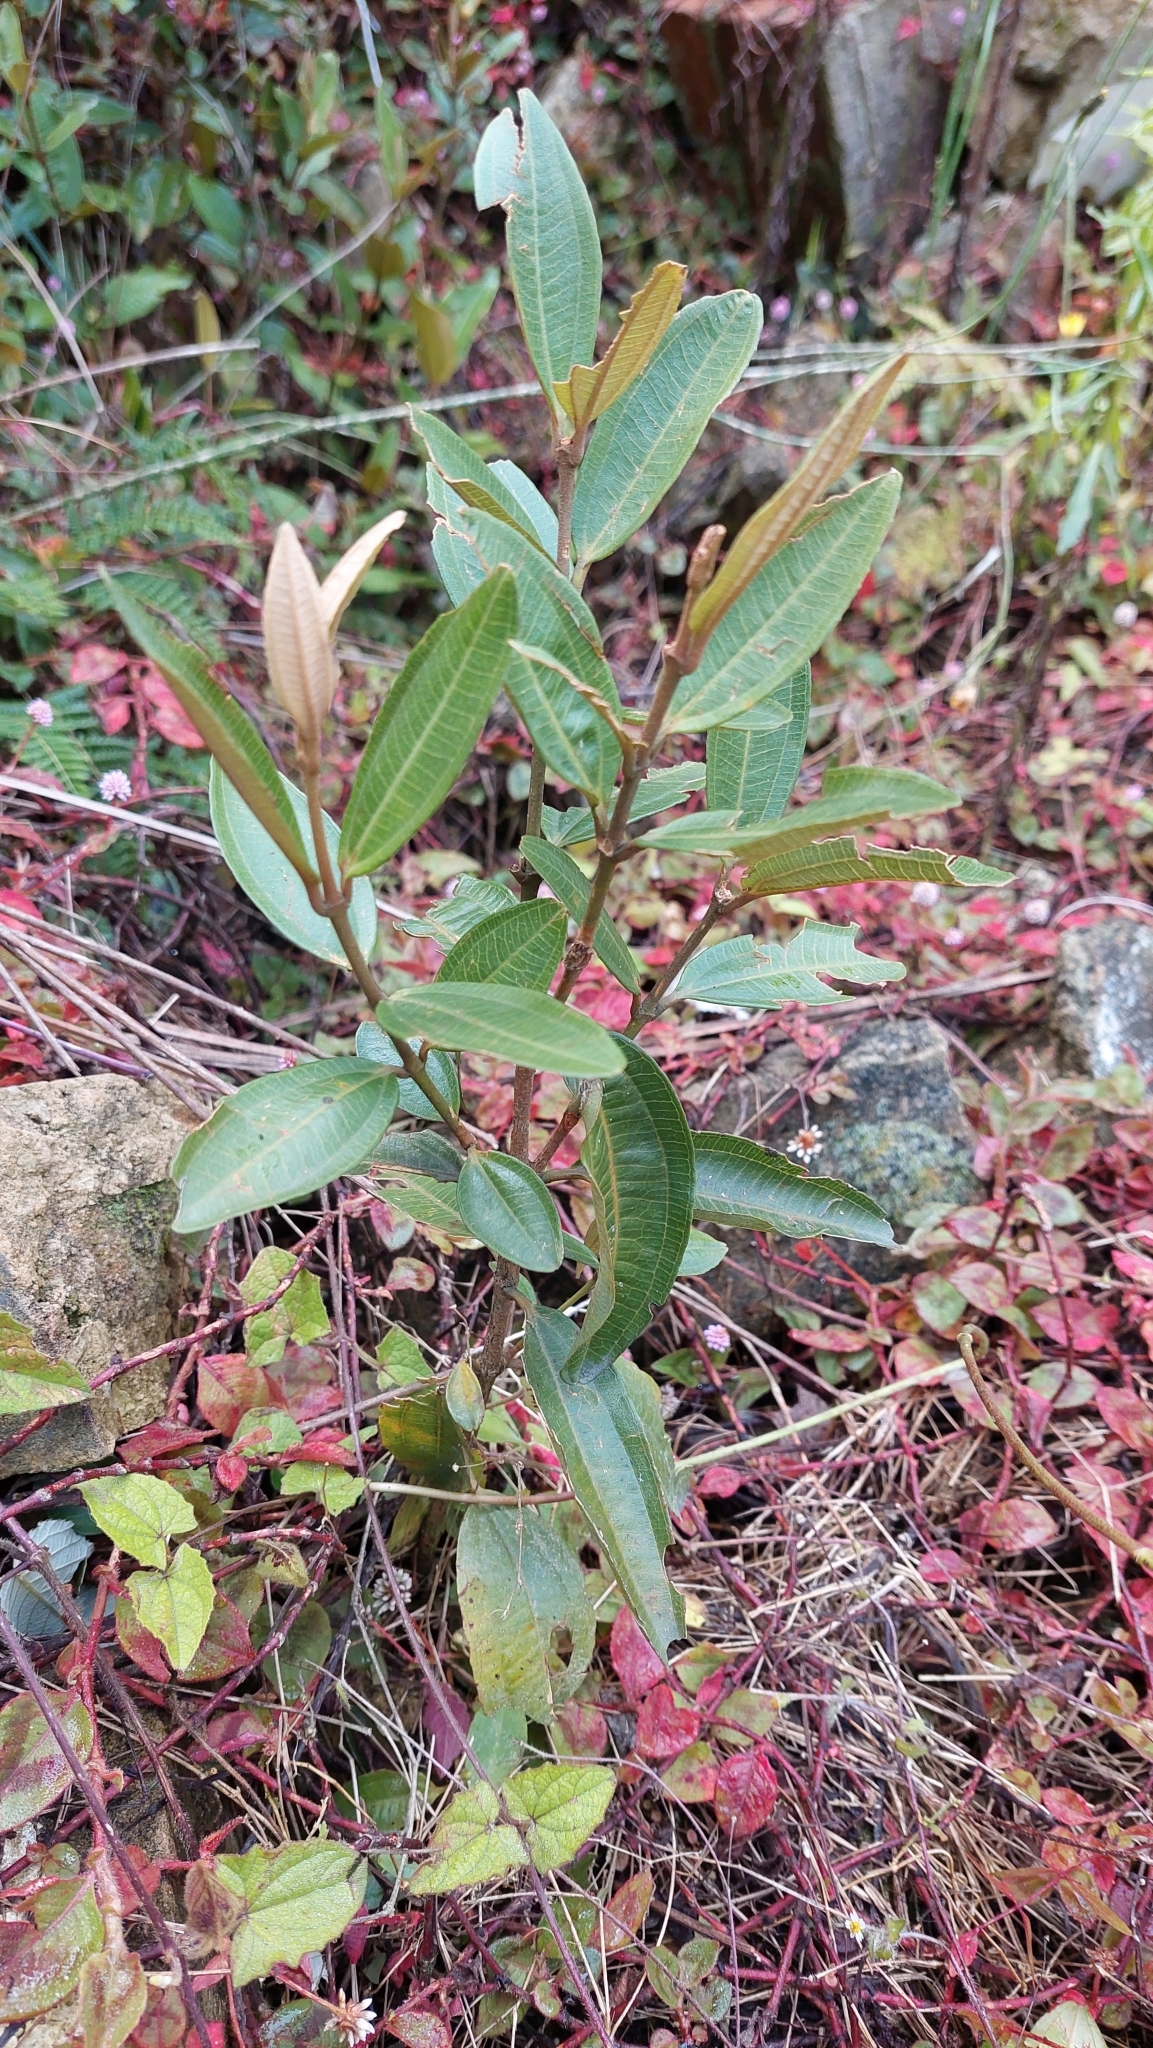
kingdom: Plantae
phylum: Tracheophyta
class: Magnoliopsida
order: Myrtales
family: Melastomataceae
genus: Miconia
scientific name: Miconia squamulosa
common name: Squamulose maya
